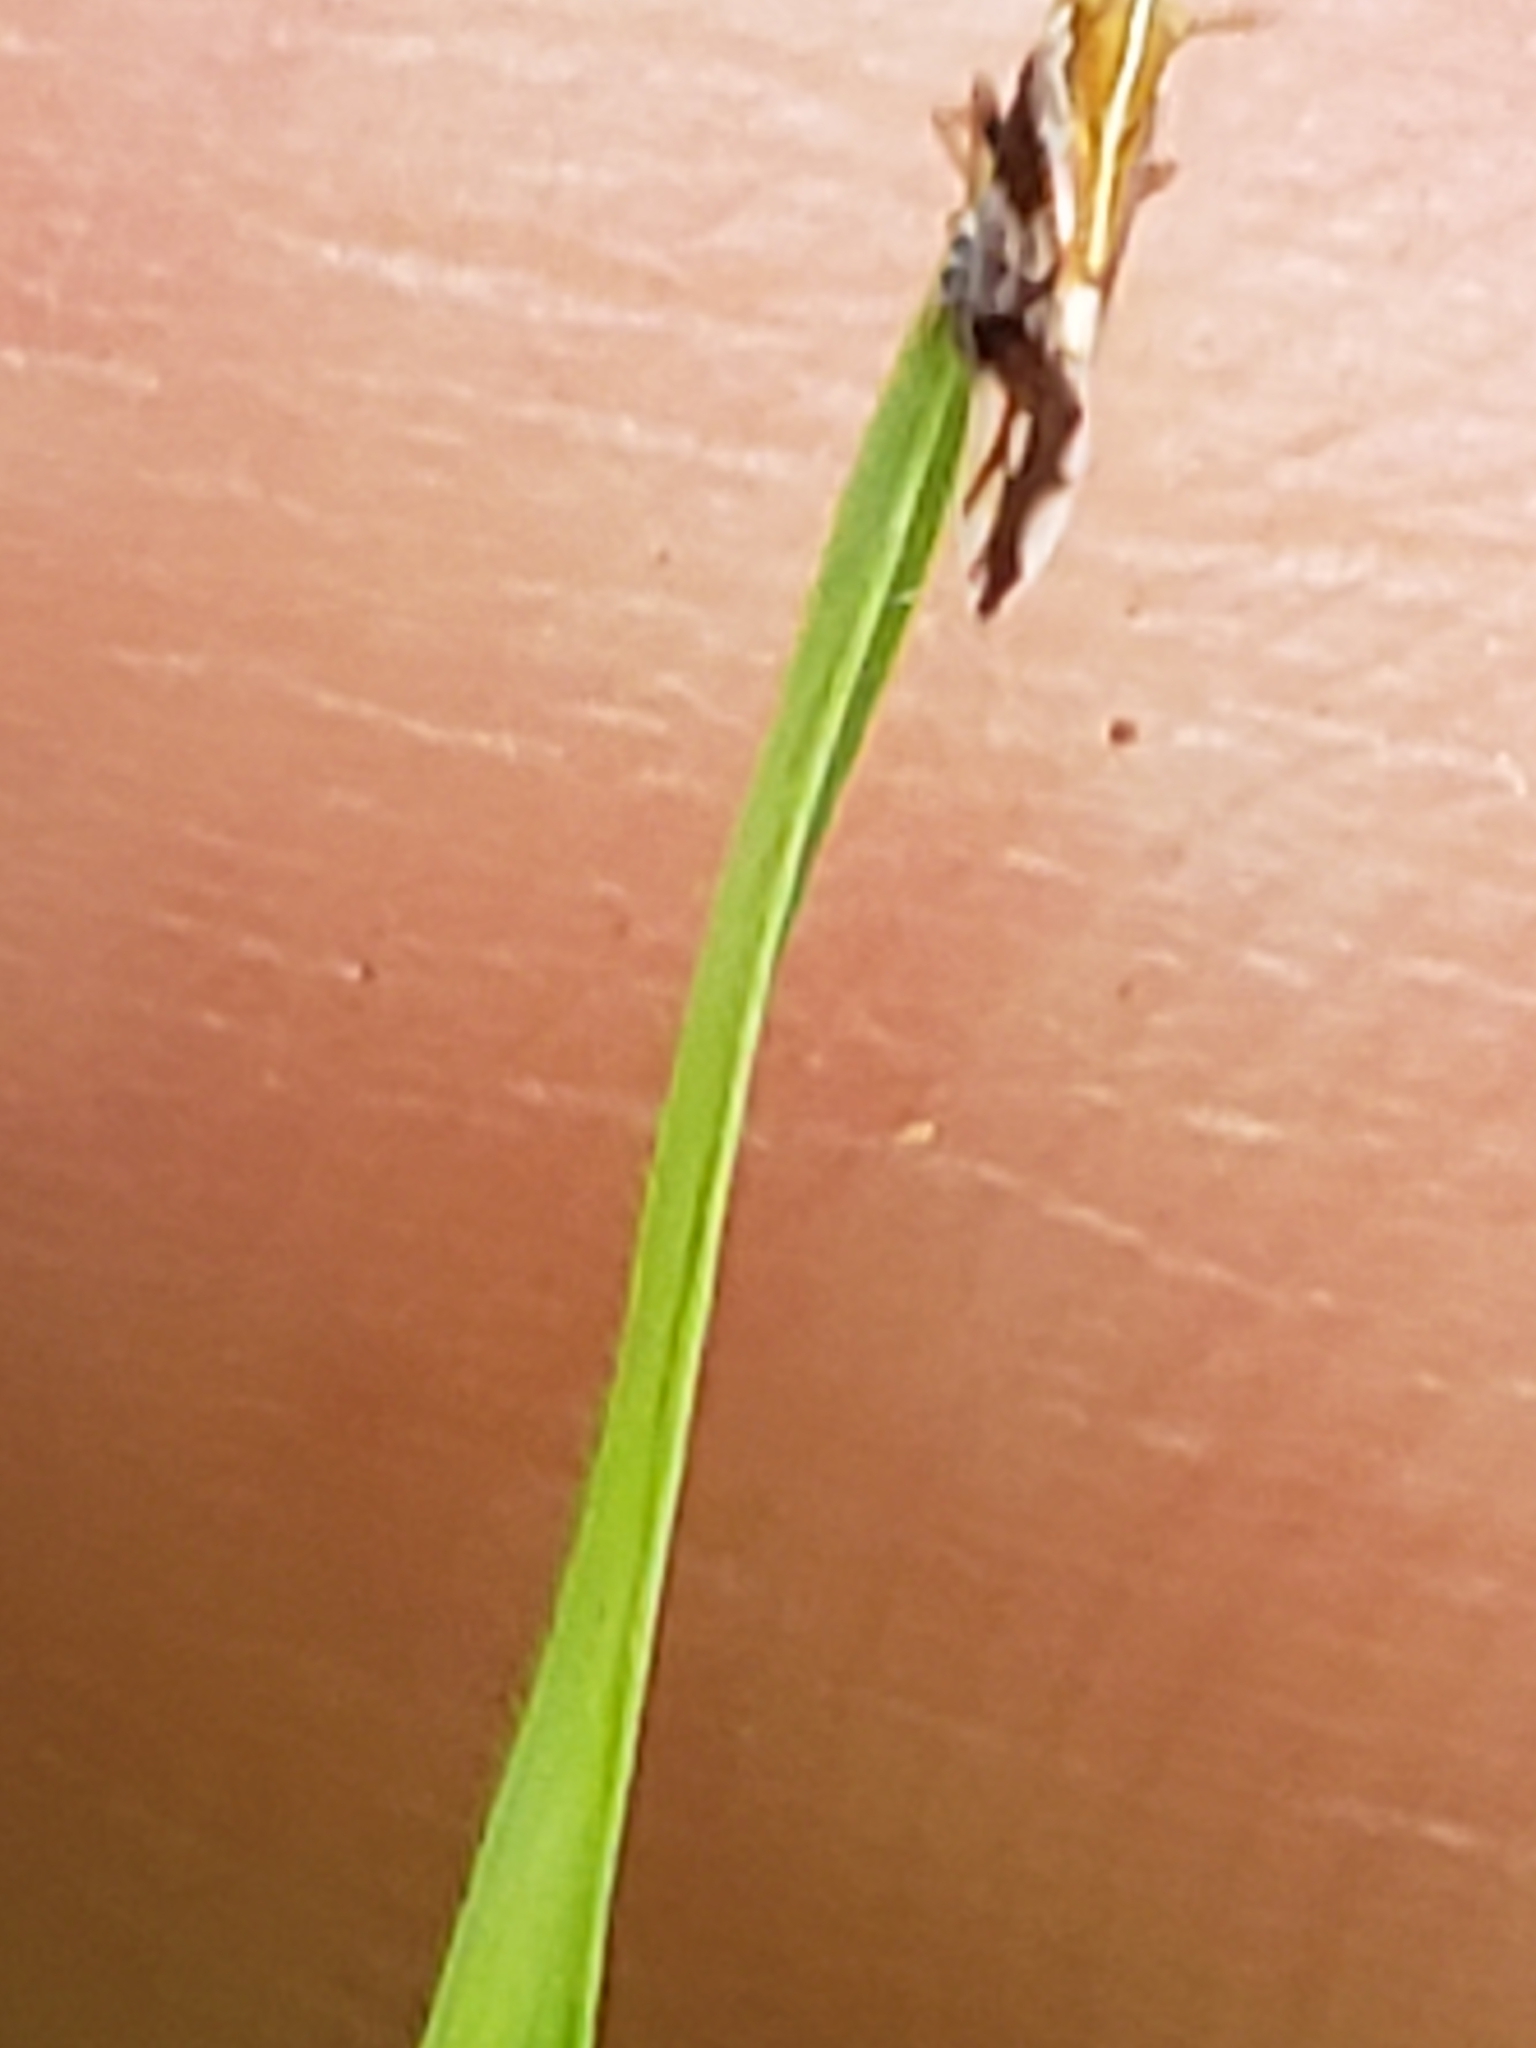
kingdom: Animalia
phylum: Arthropoda
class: Insecta
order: Hemiptera
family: Delphacidae
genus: Liburniella
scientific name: Liburniella ornata
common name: Ornate planthopper
